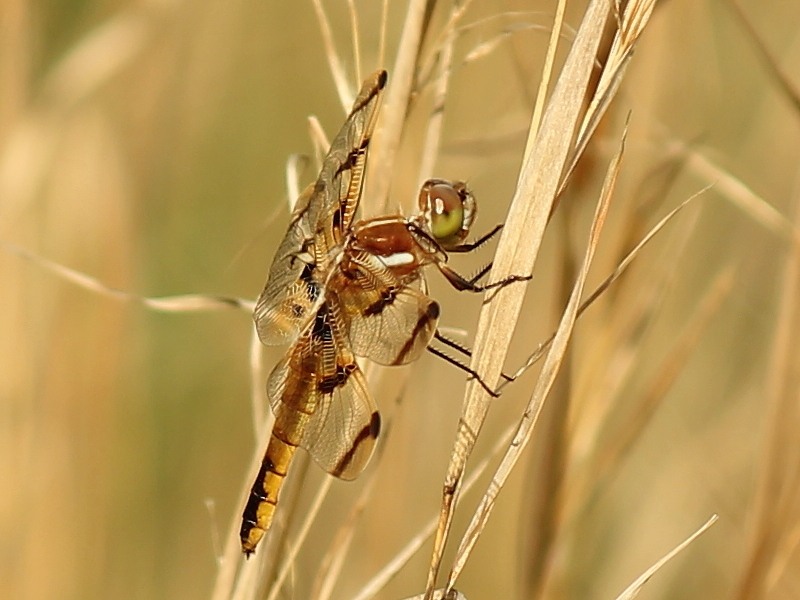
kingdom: Animalia
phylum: Arthropoda
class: Insecta
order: Odonata
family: Libellulidae
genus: Libellula
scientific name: Libellula semifasciata
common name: Painted skimmer
